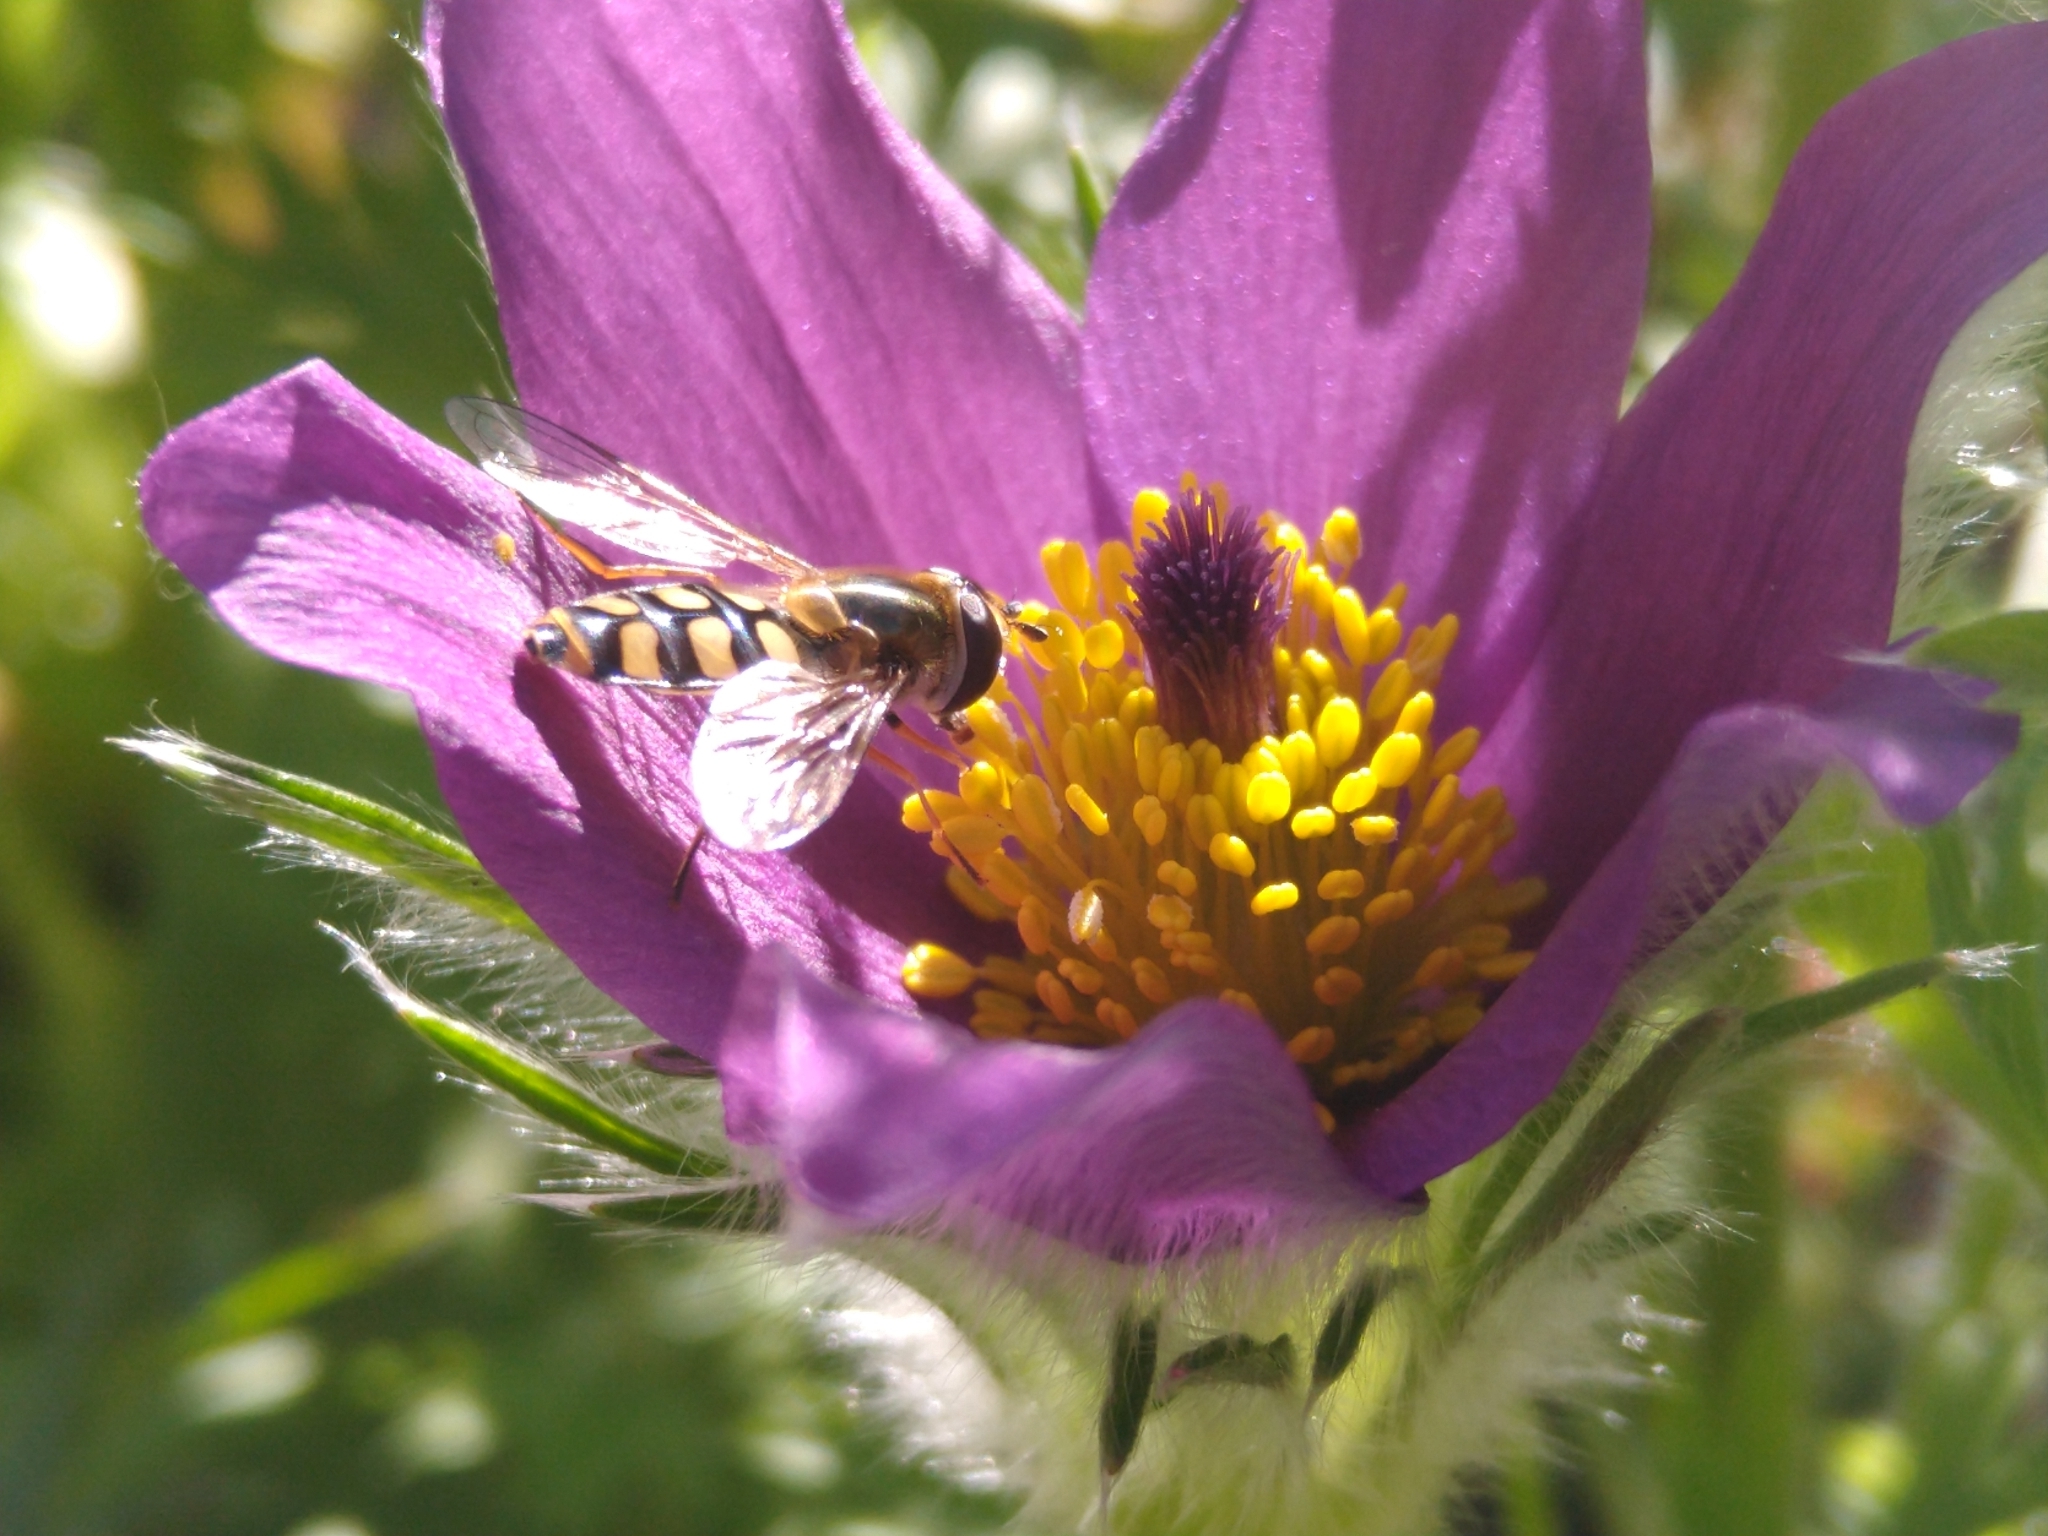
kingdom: Animalia
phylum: Arthropoda
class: Insecta
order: Diptera
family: Syrphidae
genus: Eupeodes
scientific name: Eupeodes
